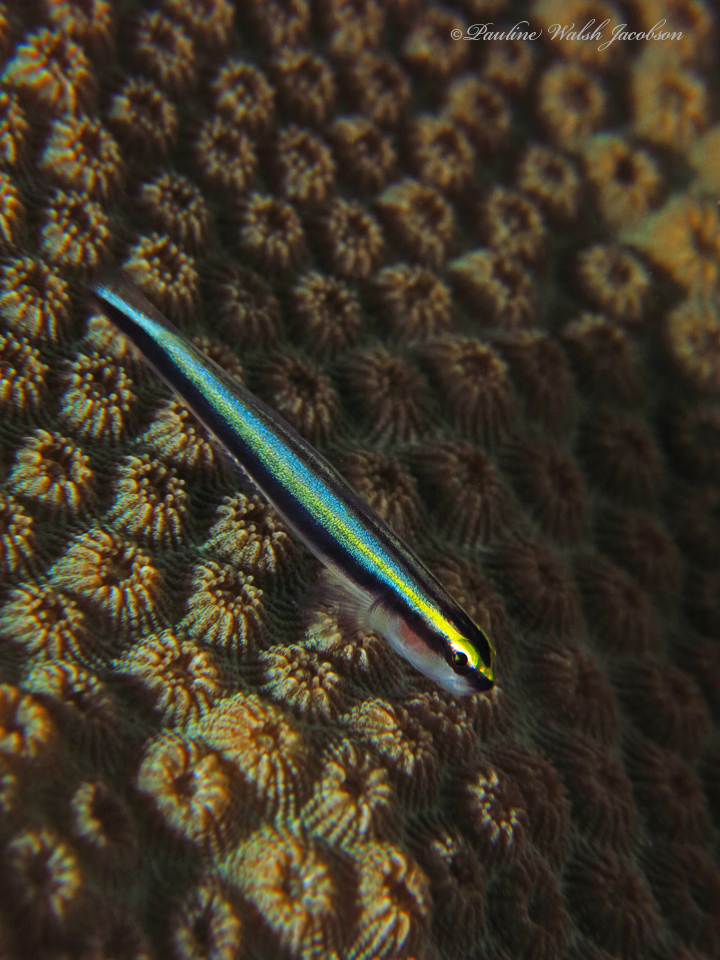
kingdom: Animalia
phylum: Chordata
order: Perciformes
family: Gobiidae
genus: Elacatinus
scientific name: Elacatinus evelynae
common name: Sharknose goby
